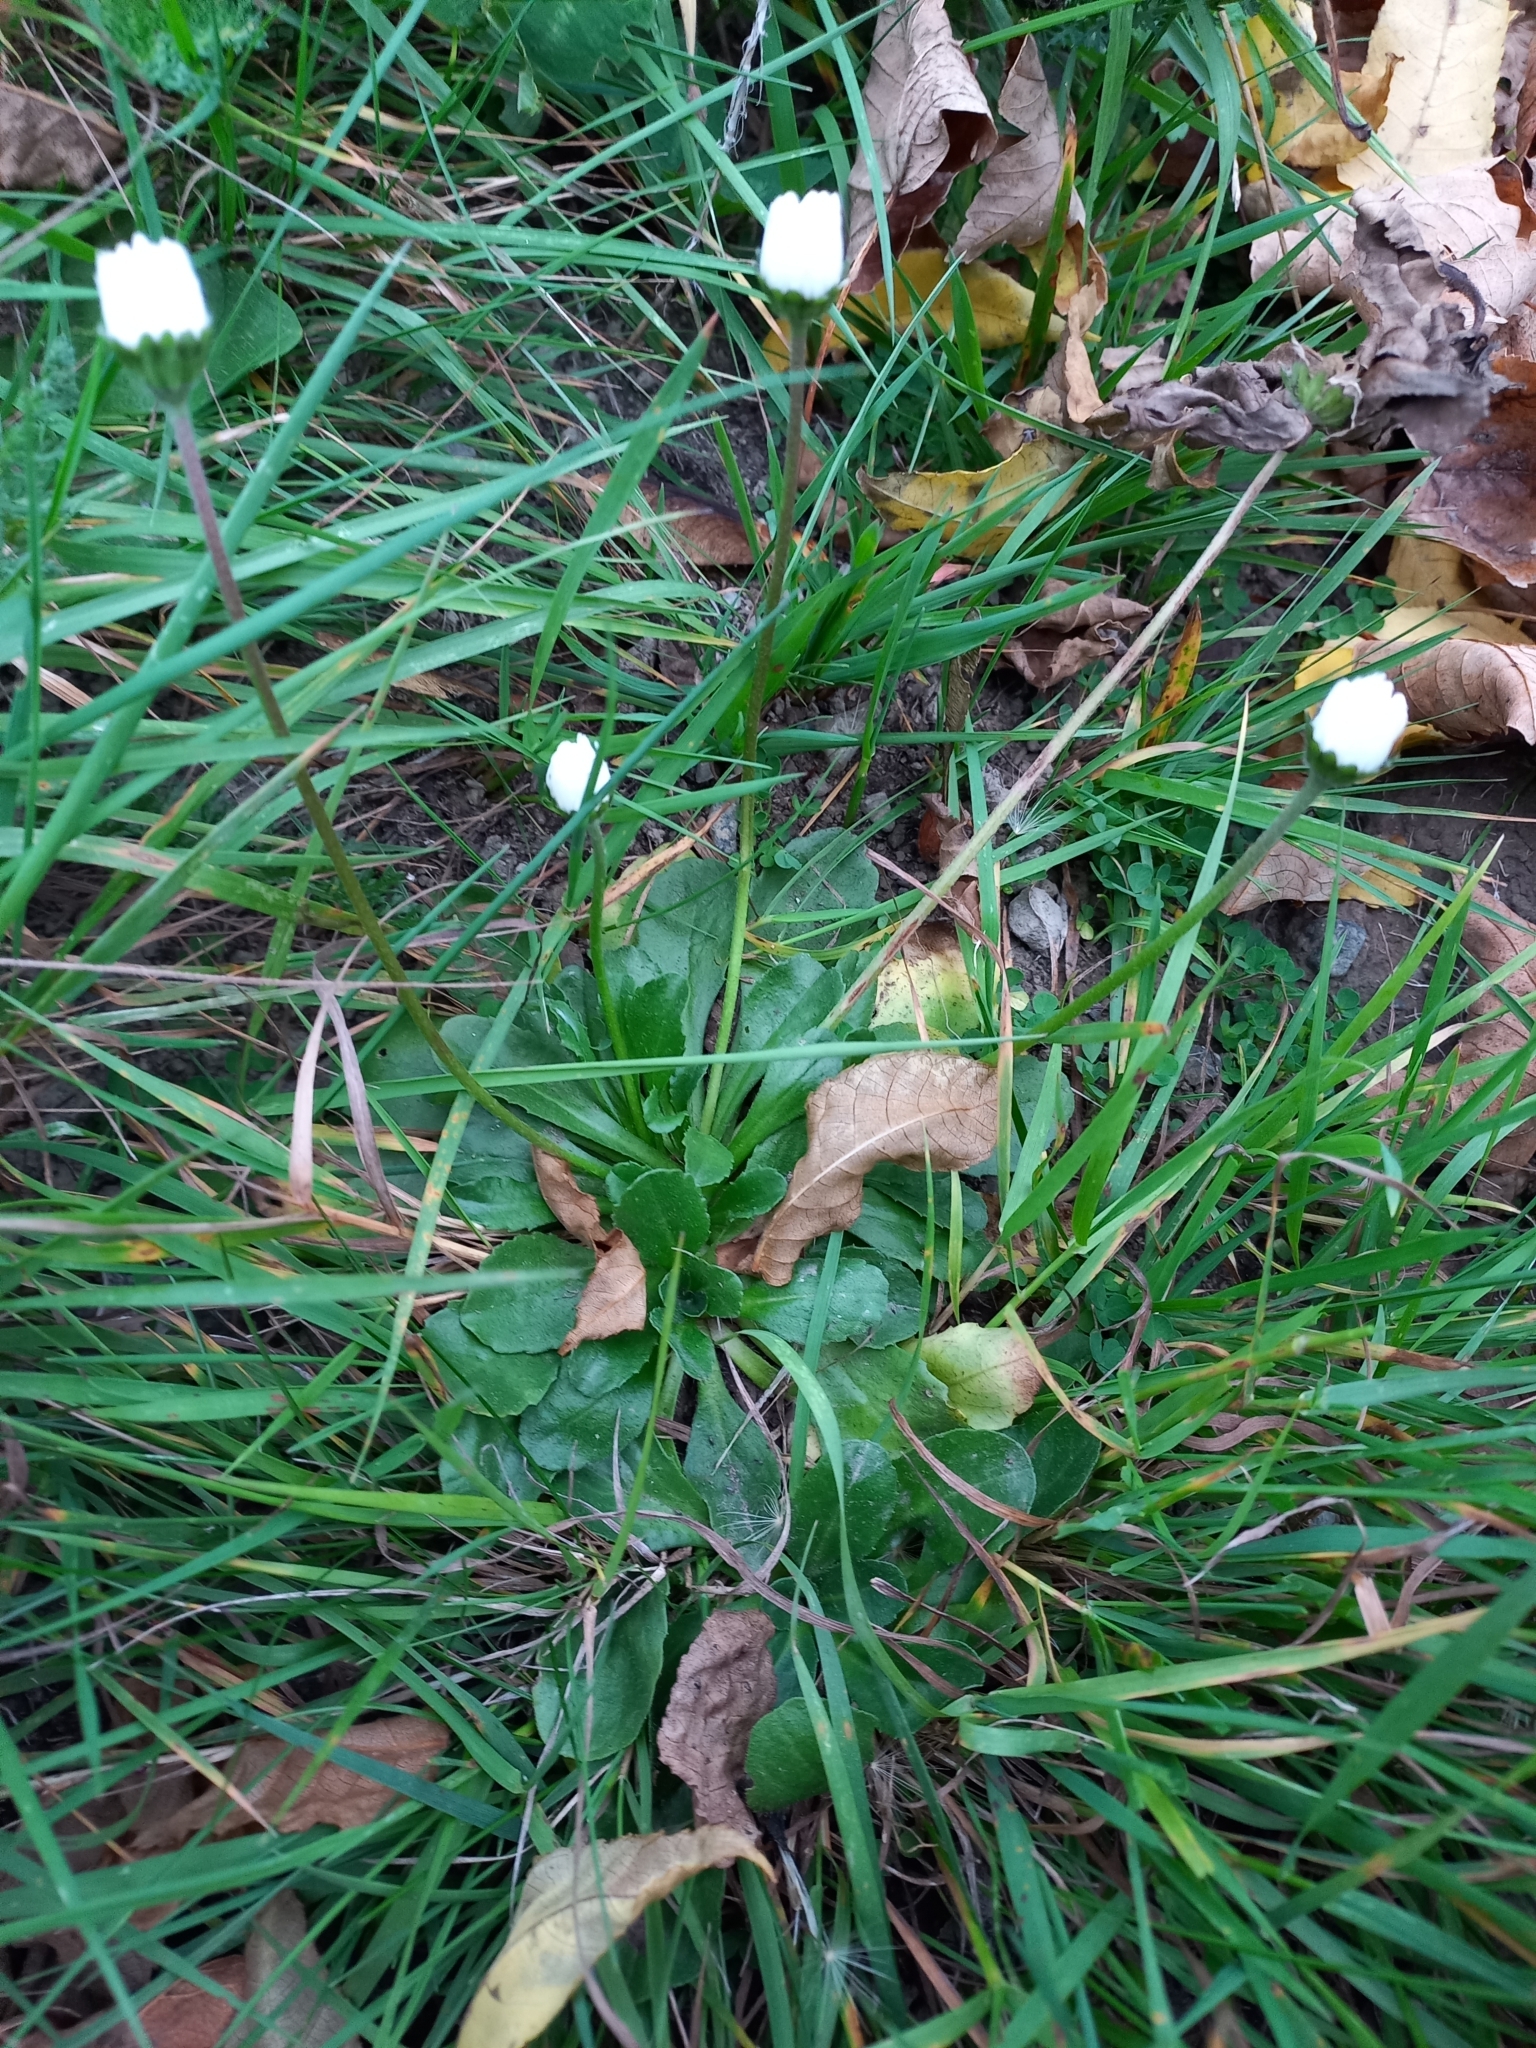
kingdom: Plantae
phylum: Tracheophyta
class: Magnoliopsida
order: Asterales
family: Asteraceae
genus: Bellis
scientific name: Bellis perennis
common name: Lawndaisy
